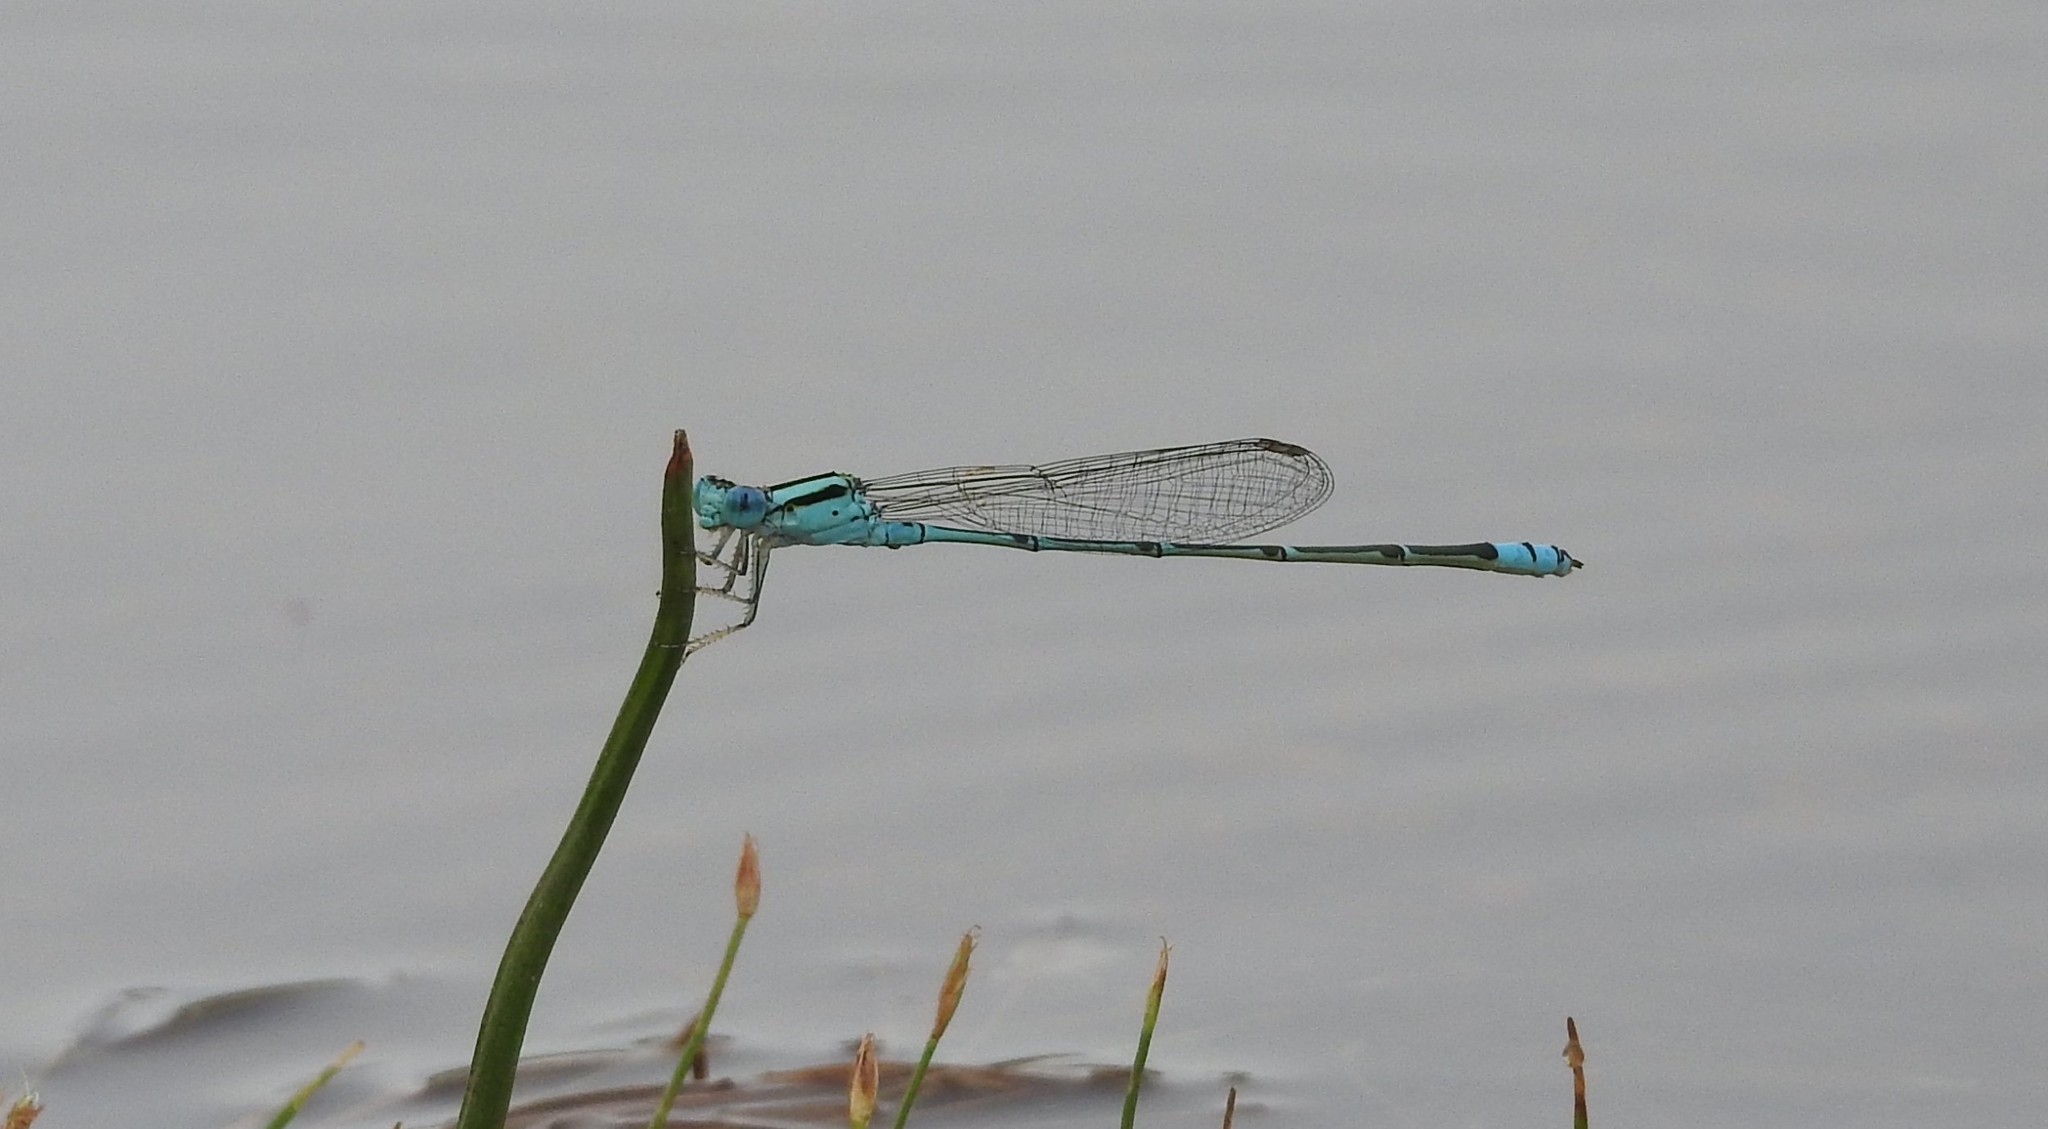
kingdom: Animalia
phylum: Arthropoda
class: Insecta
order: Odonata
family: Coenagrionidae
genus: Pseudagrion
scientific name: Pseudagrion microcephalum
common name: Blue riverdamsel
